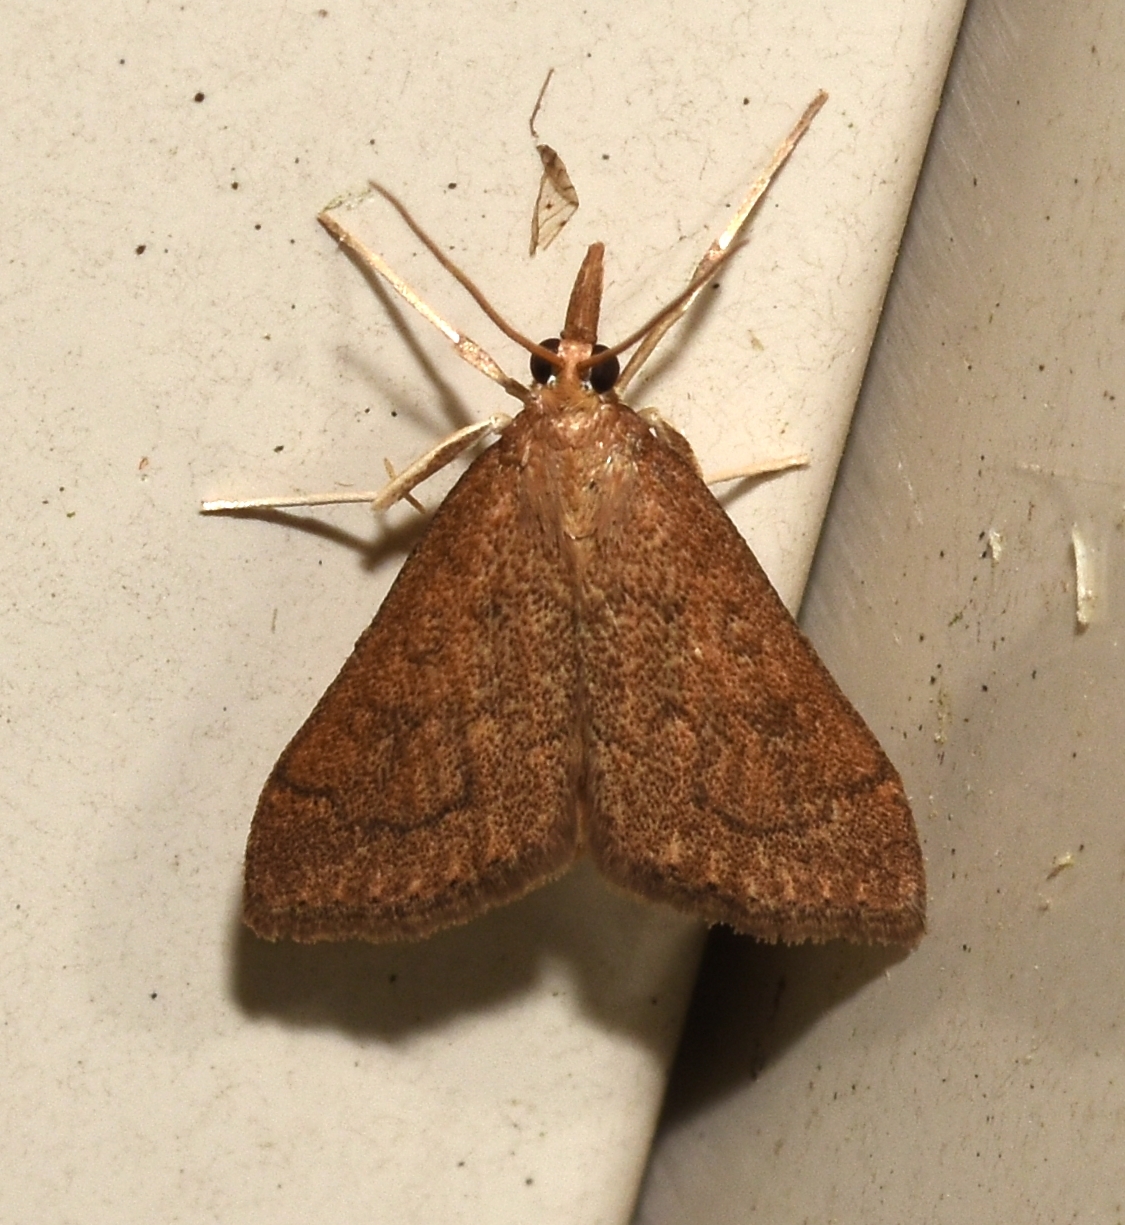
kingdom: Animalia
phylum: Arthropoda
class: Insecta
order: Lepidoptera
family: Crambidae
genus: Udea
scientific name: Udea rubigalis
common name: Celery leaftier moth
